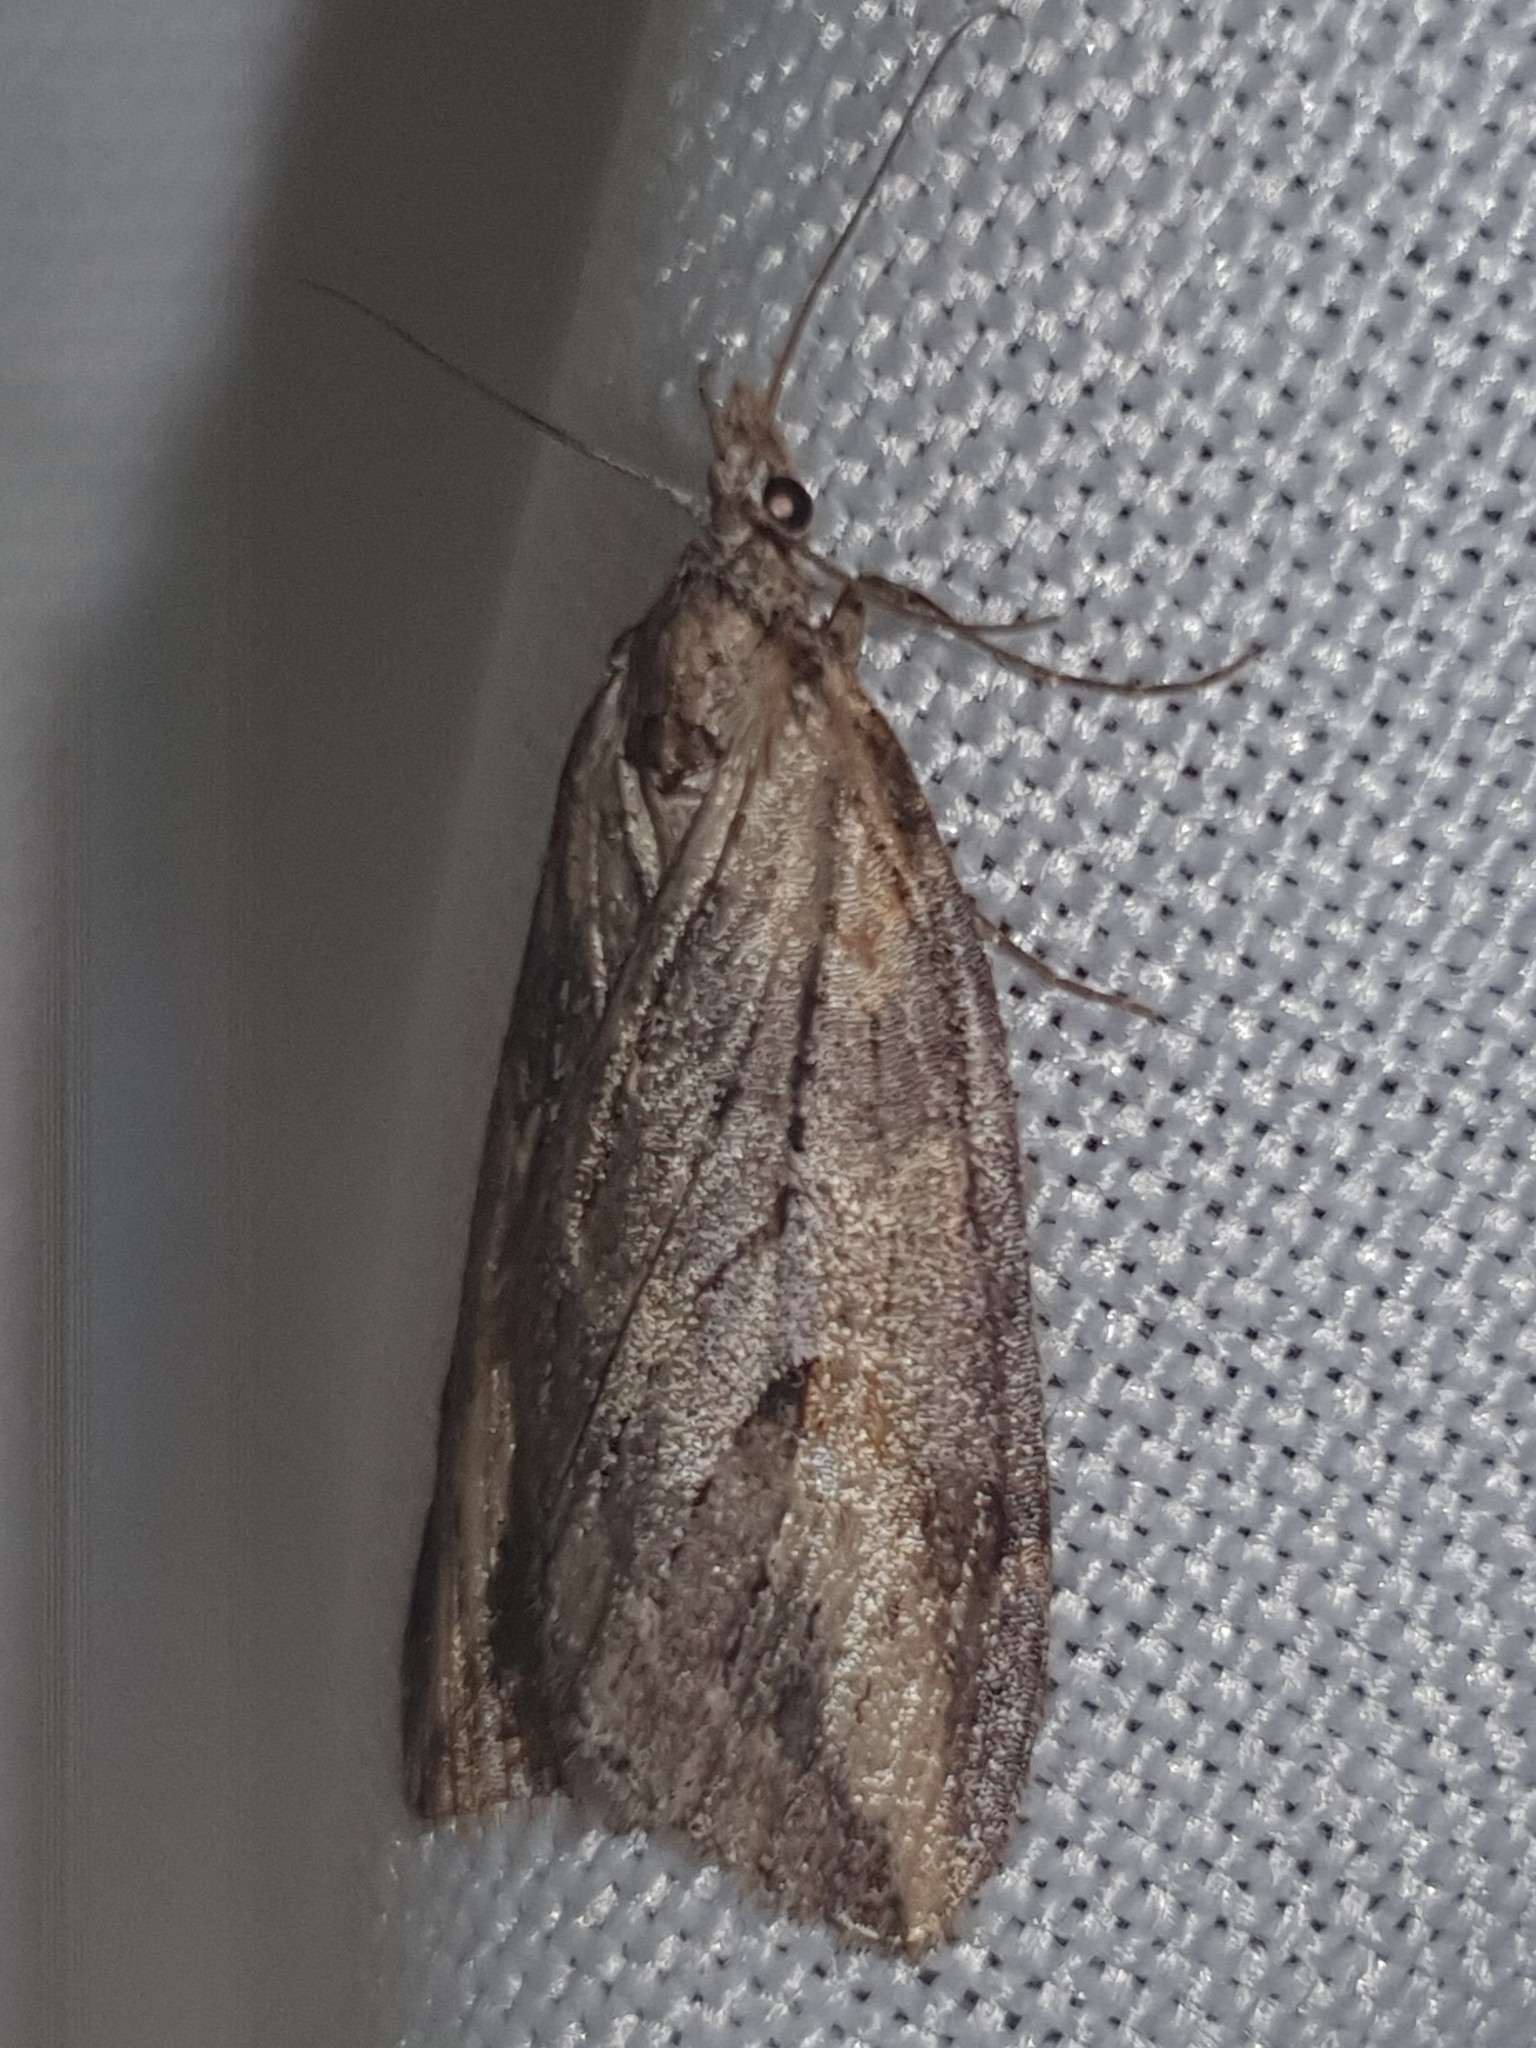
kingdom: Animalia
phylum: Arthropoda
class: Insecta
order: Lepidoptera
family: Geometridae
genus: Pachycnemia
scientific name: Pachycnemia hippocastanaria
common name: Horse chestnut
